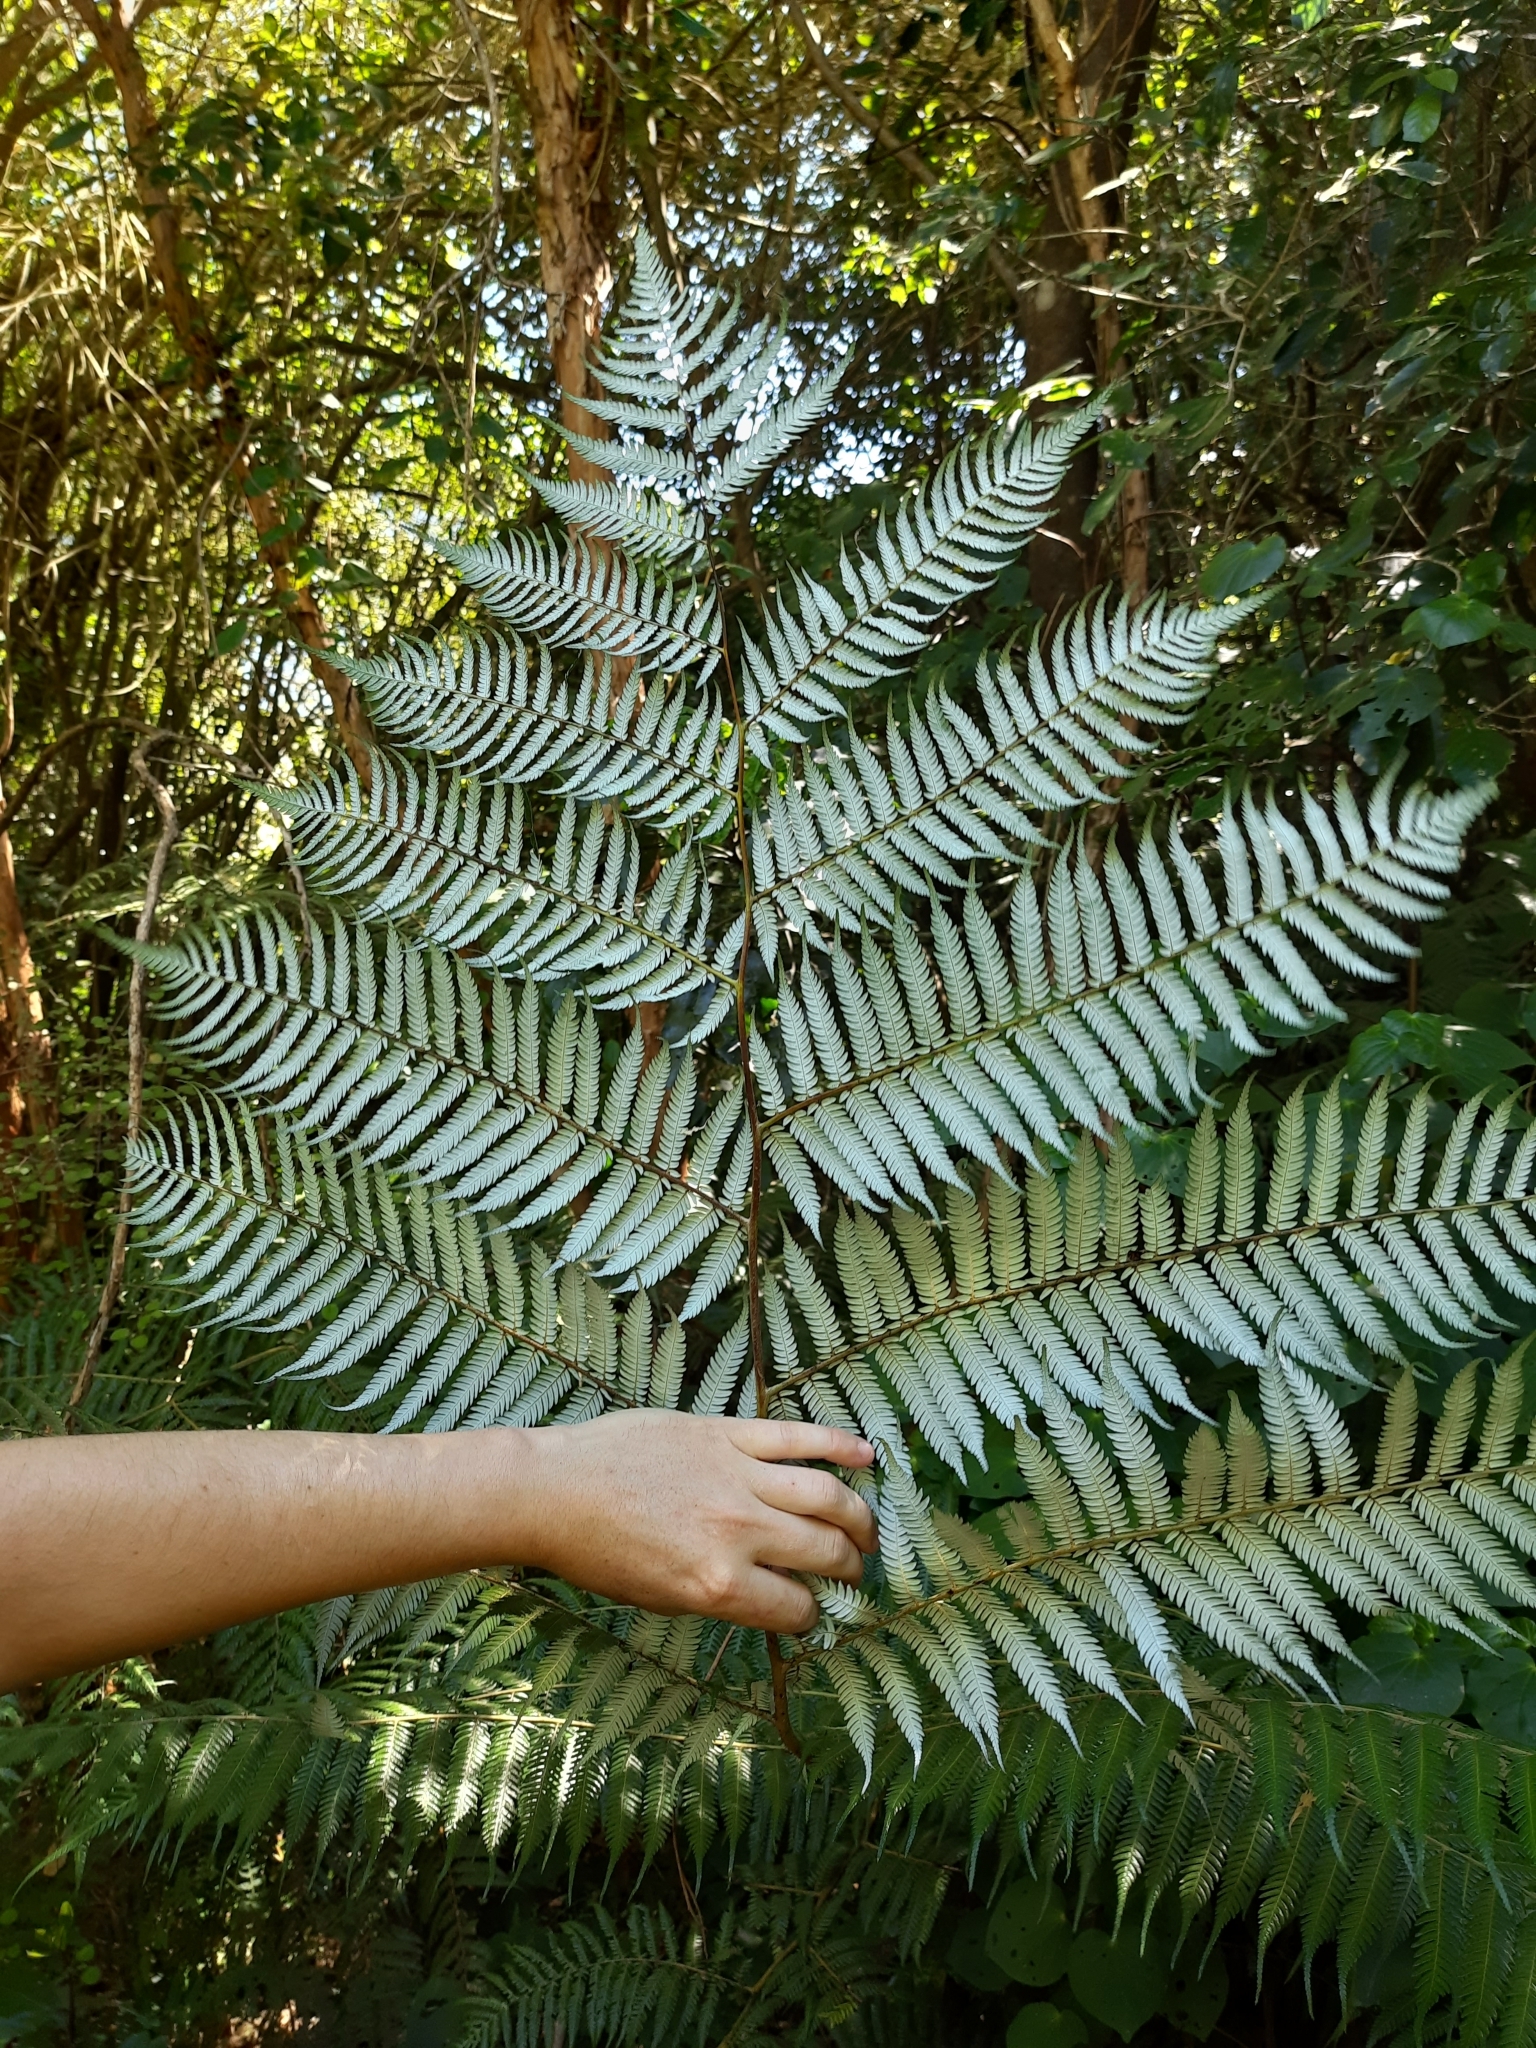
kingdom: Plantae
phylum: Tracheophyta
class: Polypodiopsida
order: Cyatheales
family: Cyatheaceae
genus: Alsophila
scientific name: Alsophila dealbata
